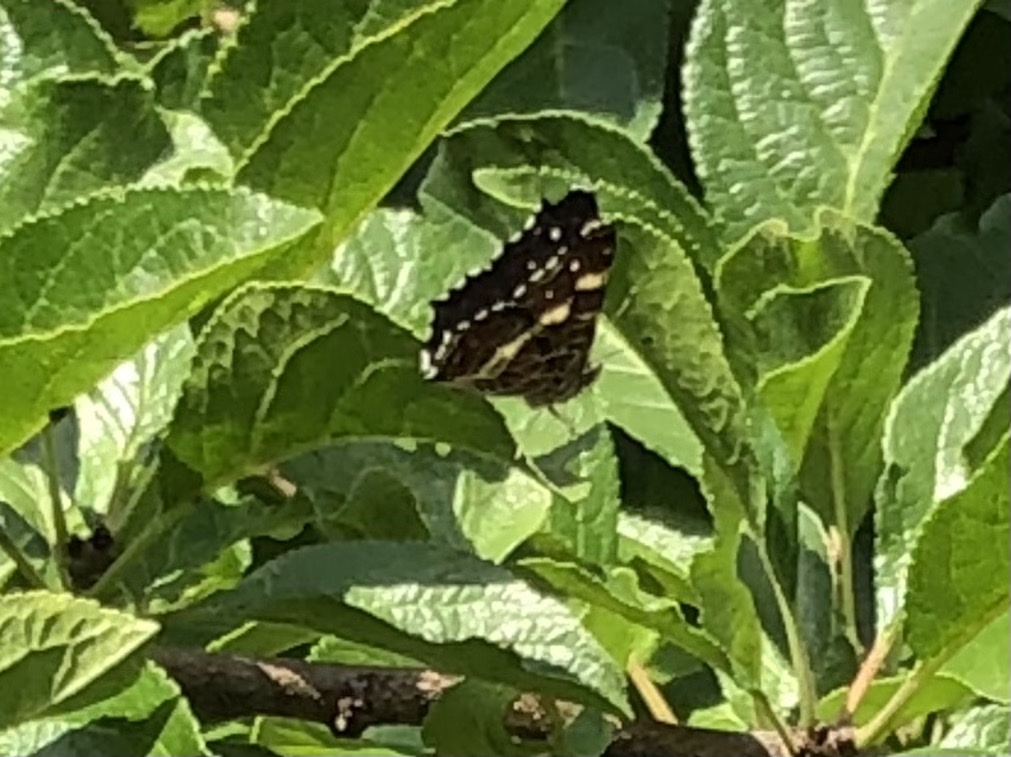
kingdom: Animalia
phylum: Arthropoda
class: Insecta
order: Lepidoptera
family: Nymphalidae
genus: Araschnia
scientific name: Araschnia levana
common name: Map butterfly
